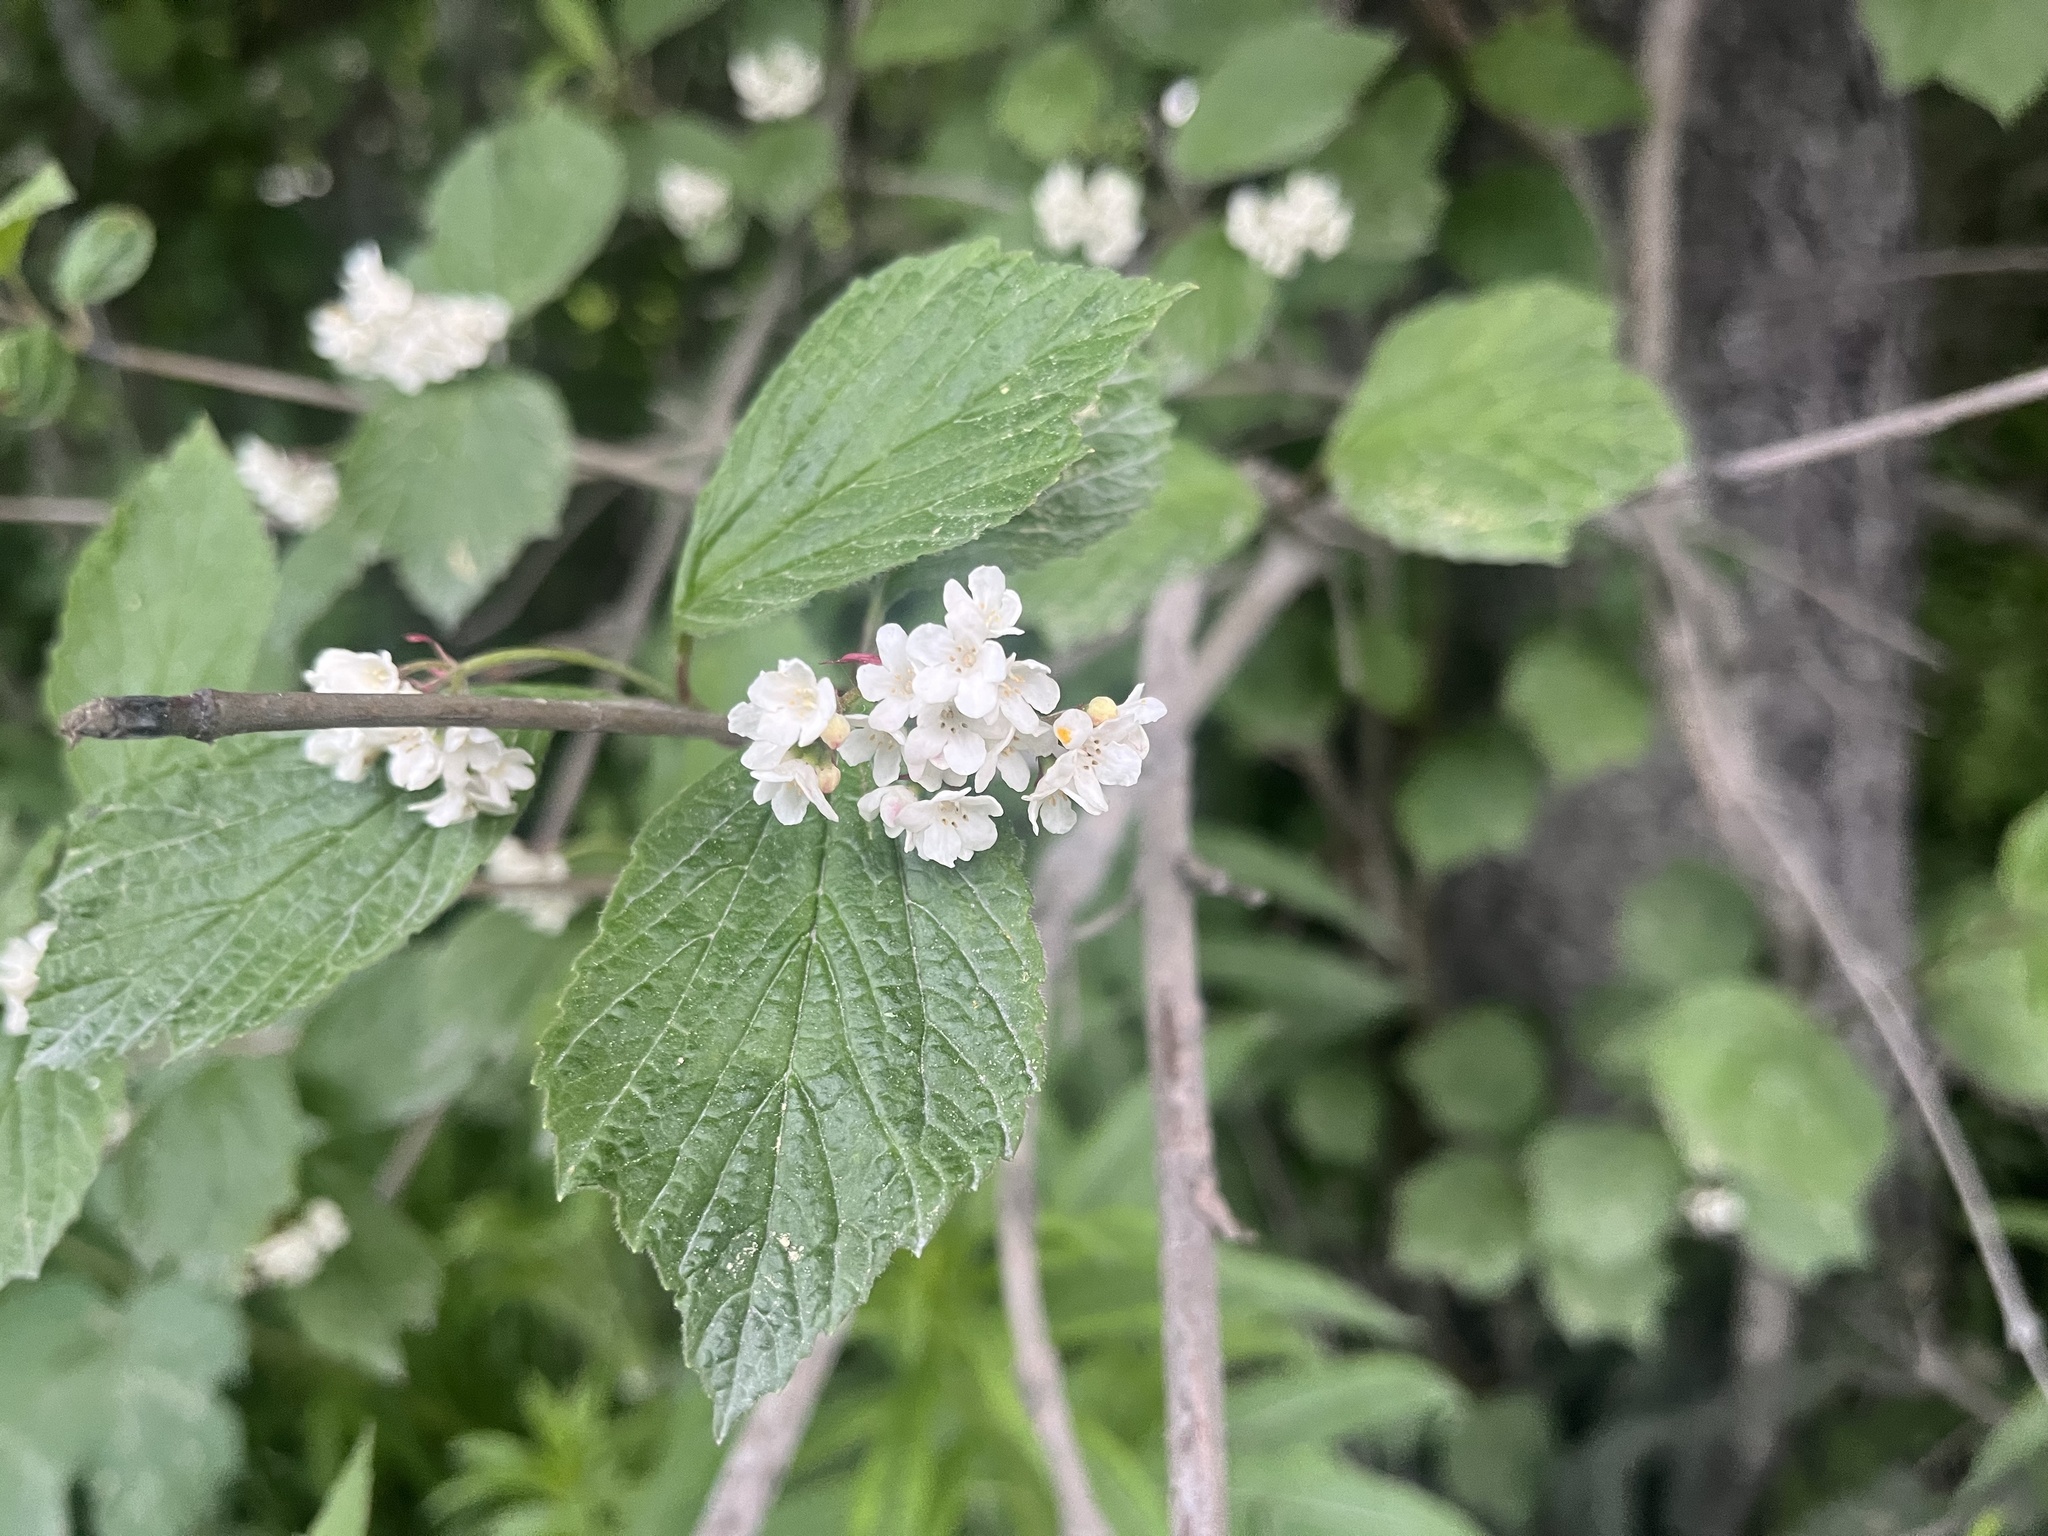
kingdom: Plantae
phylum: Tracheophyta
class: Magnoliopsida
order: Dipsacales
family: Viburnaceae
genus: Viburnum
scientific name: Viburnum edule
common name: Mooseberry
